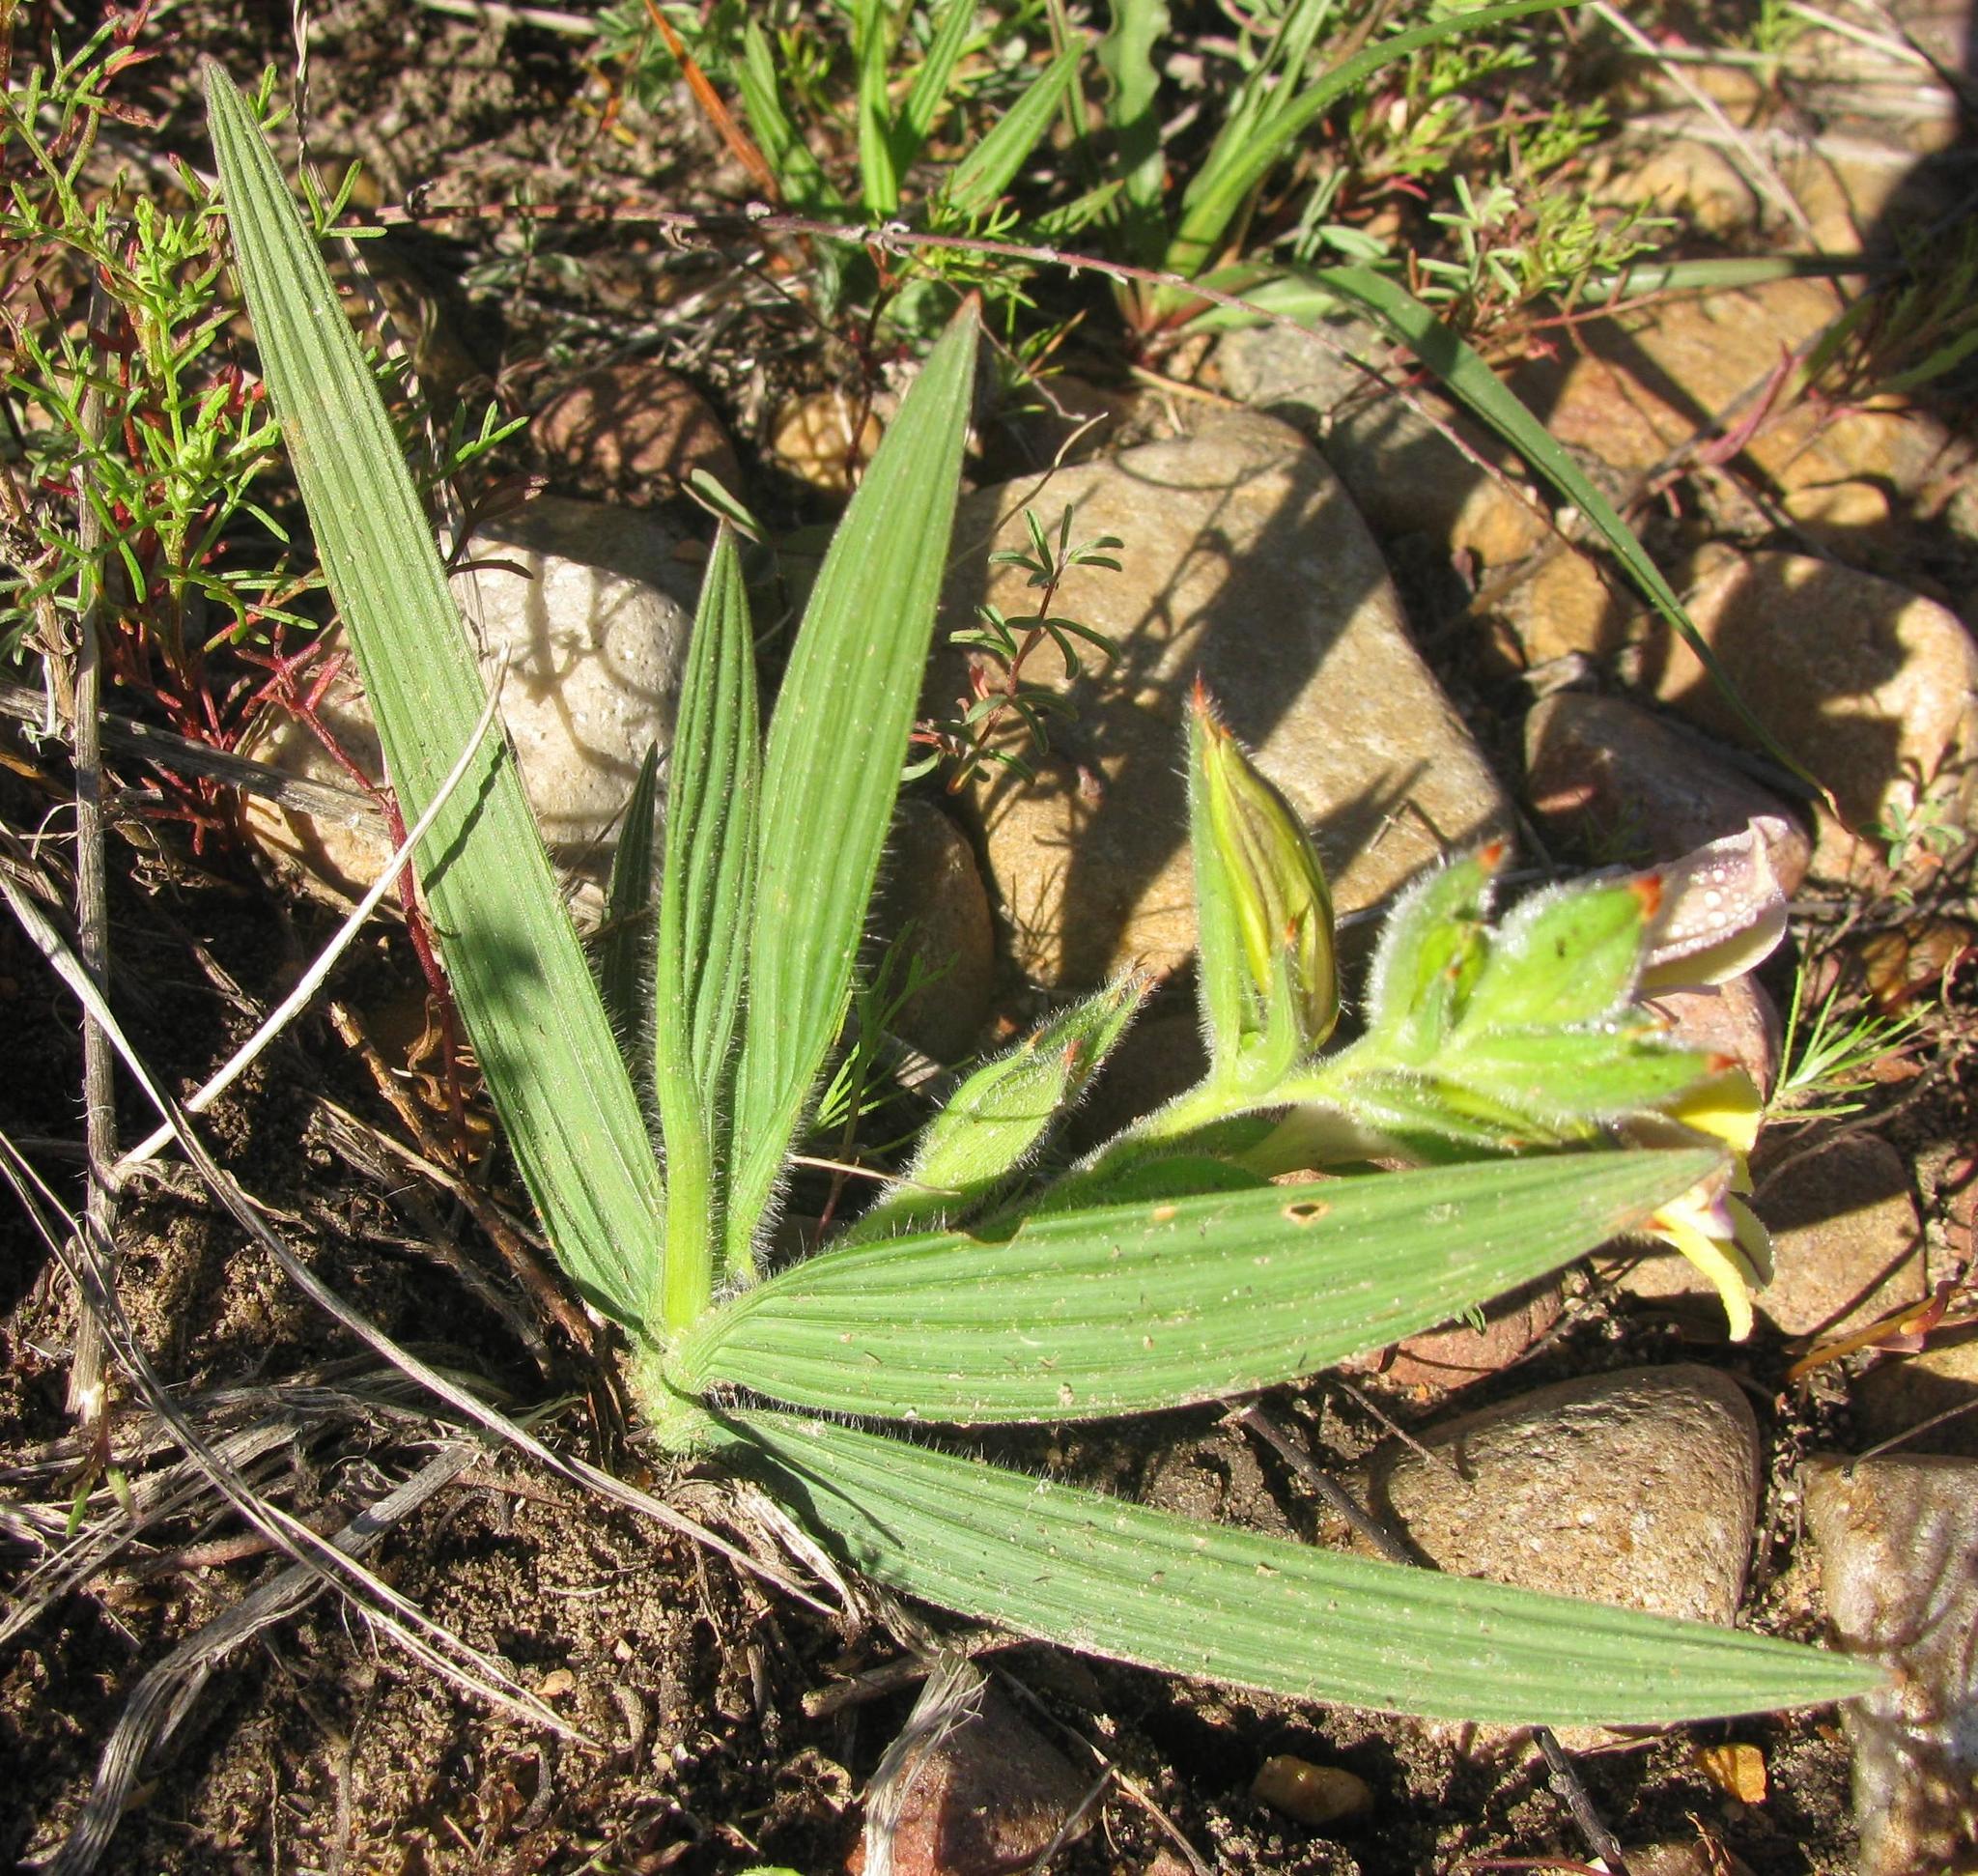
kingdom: Plantae
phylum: Tracheophyta
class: Liliopsida
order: Asparagales
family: Iridaceae
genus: Babiana
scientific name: Babiana patula
